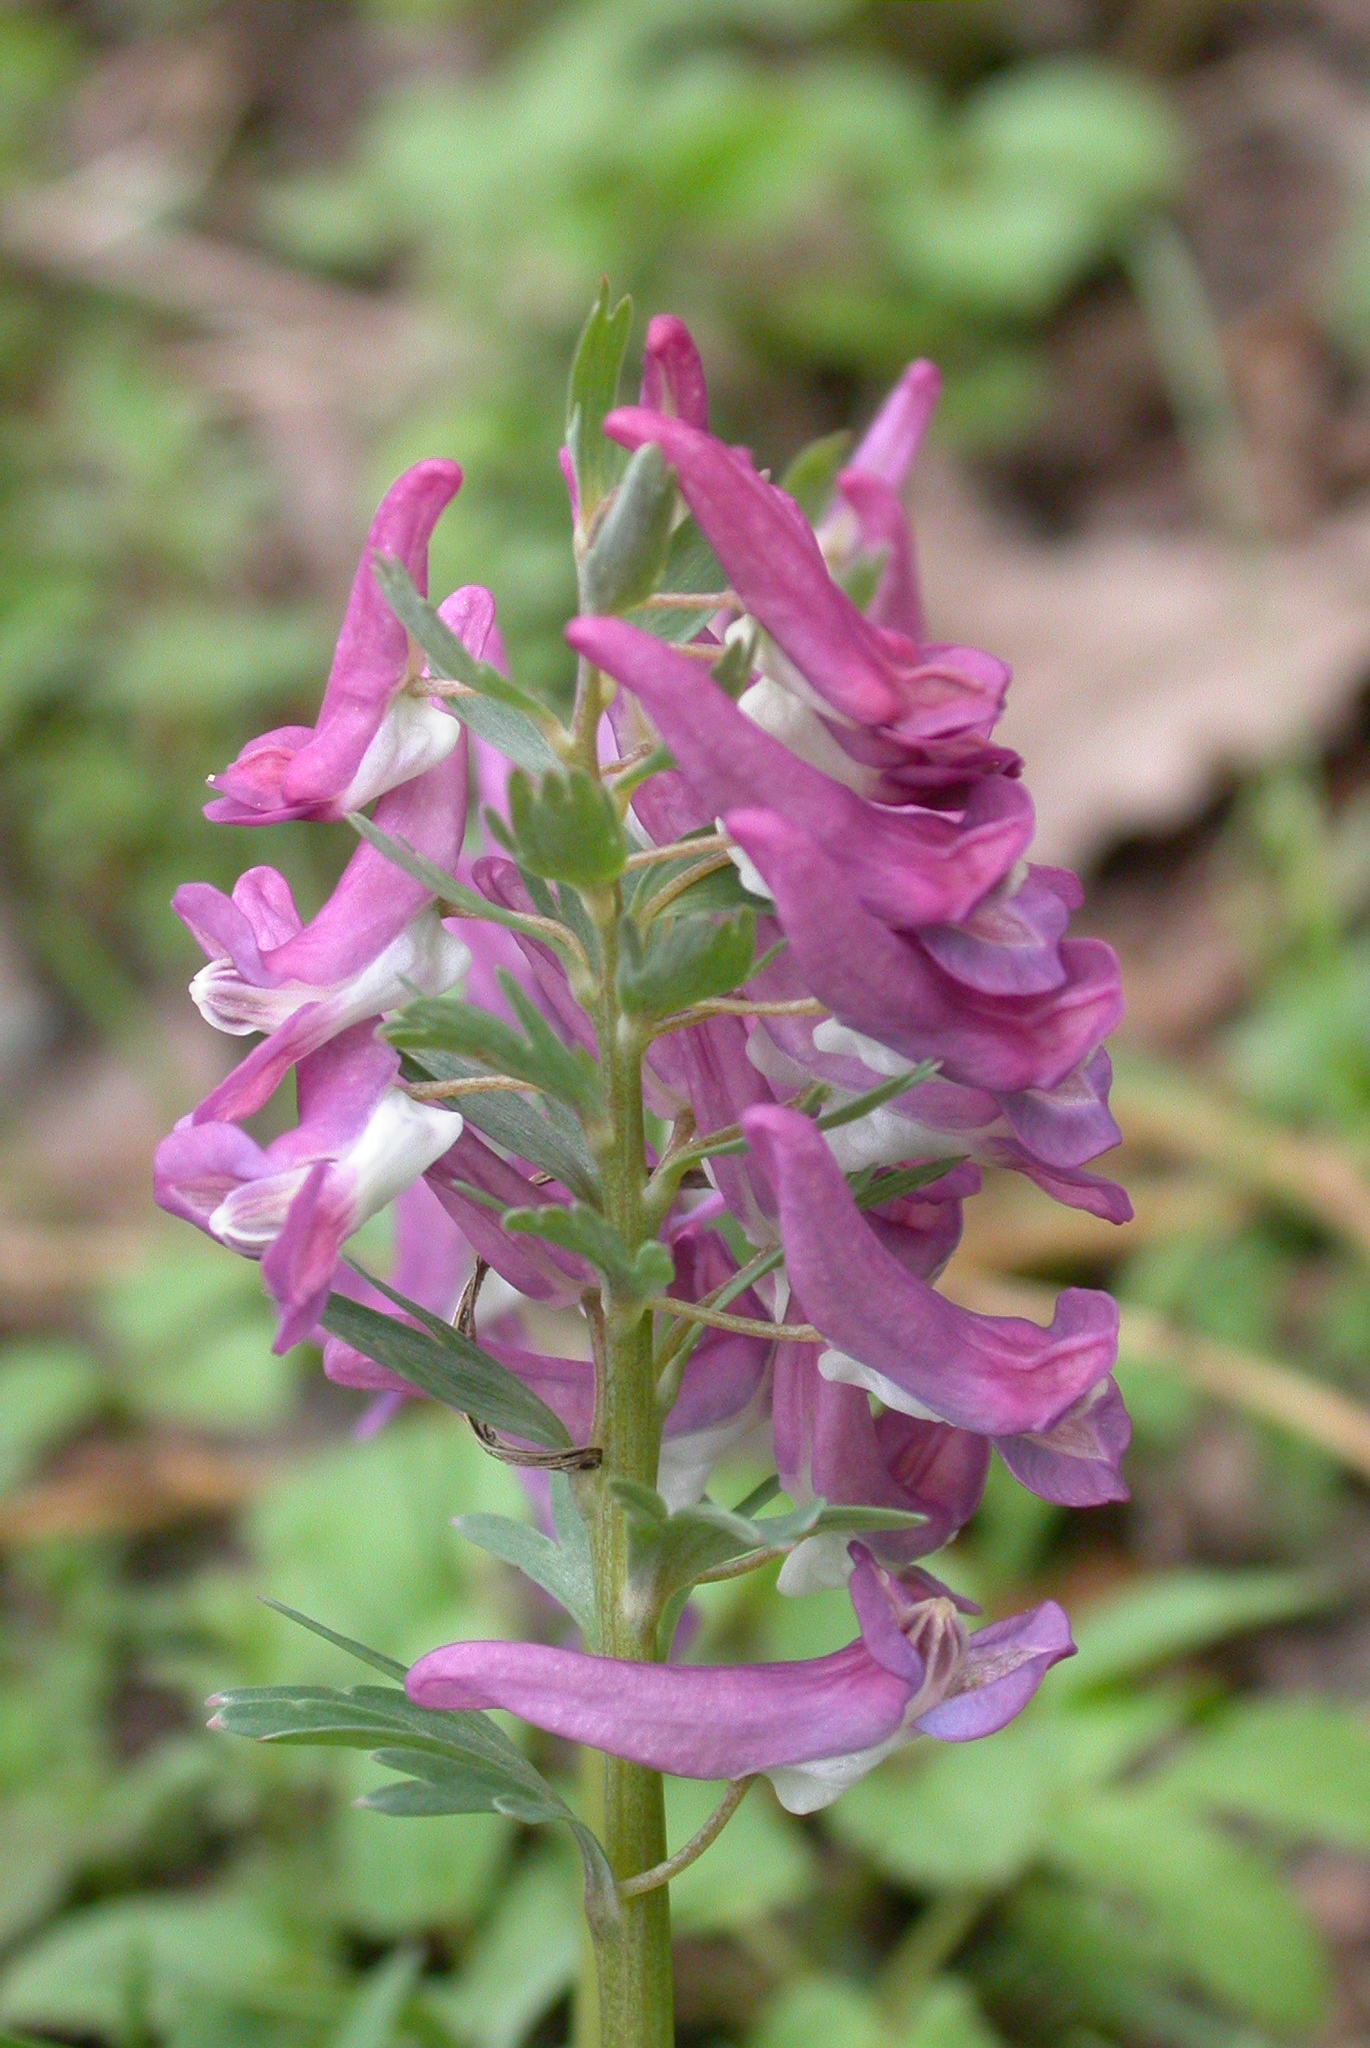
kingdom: Plantae
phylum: Tracheophyta
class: Magnoliopsida
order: Ranunculales
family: Papaveraceae
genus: Corydalis
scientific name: Corydalis solida
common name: Bird-in-a-bush
